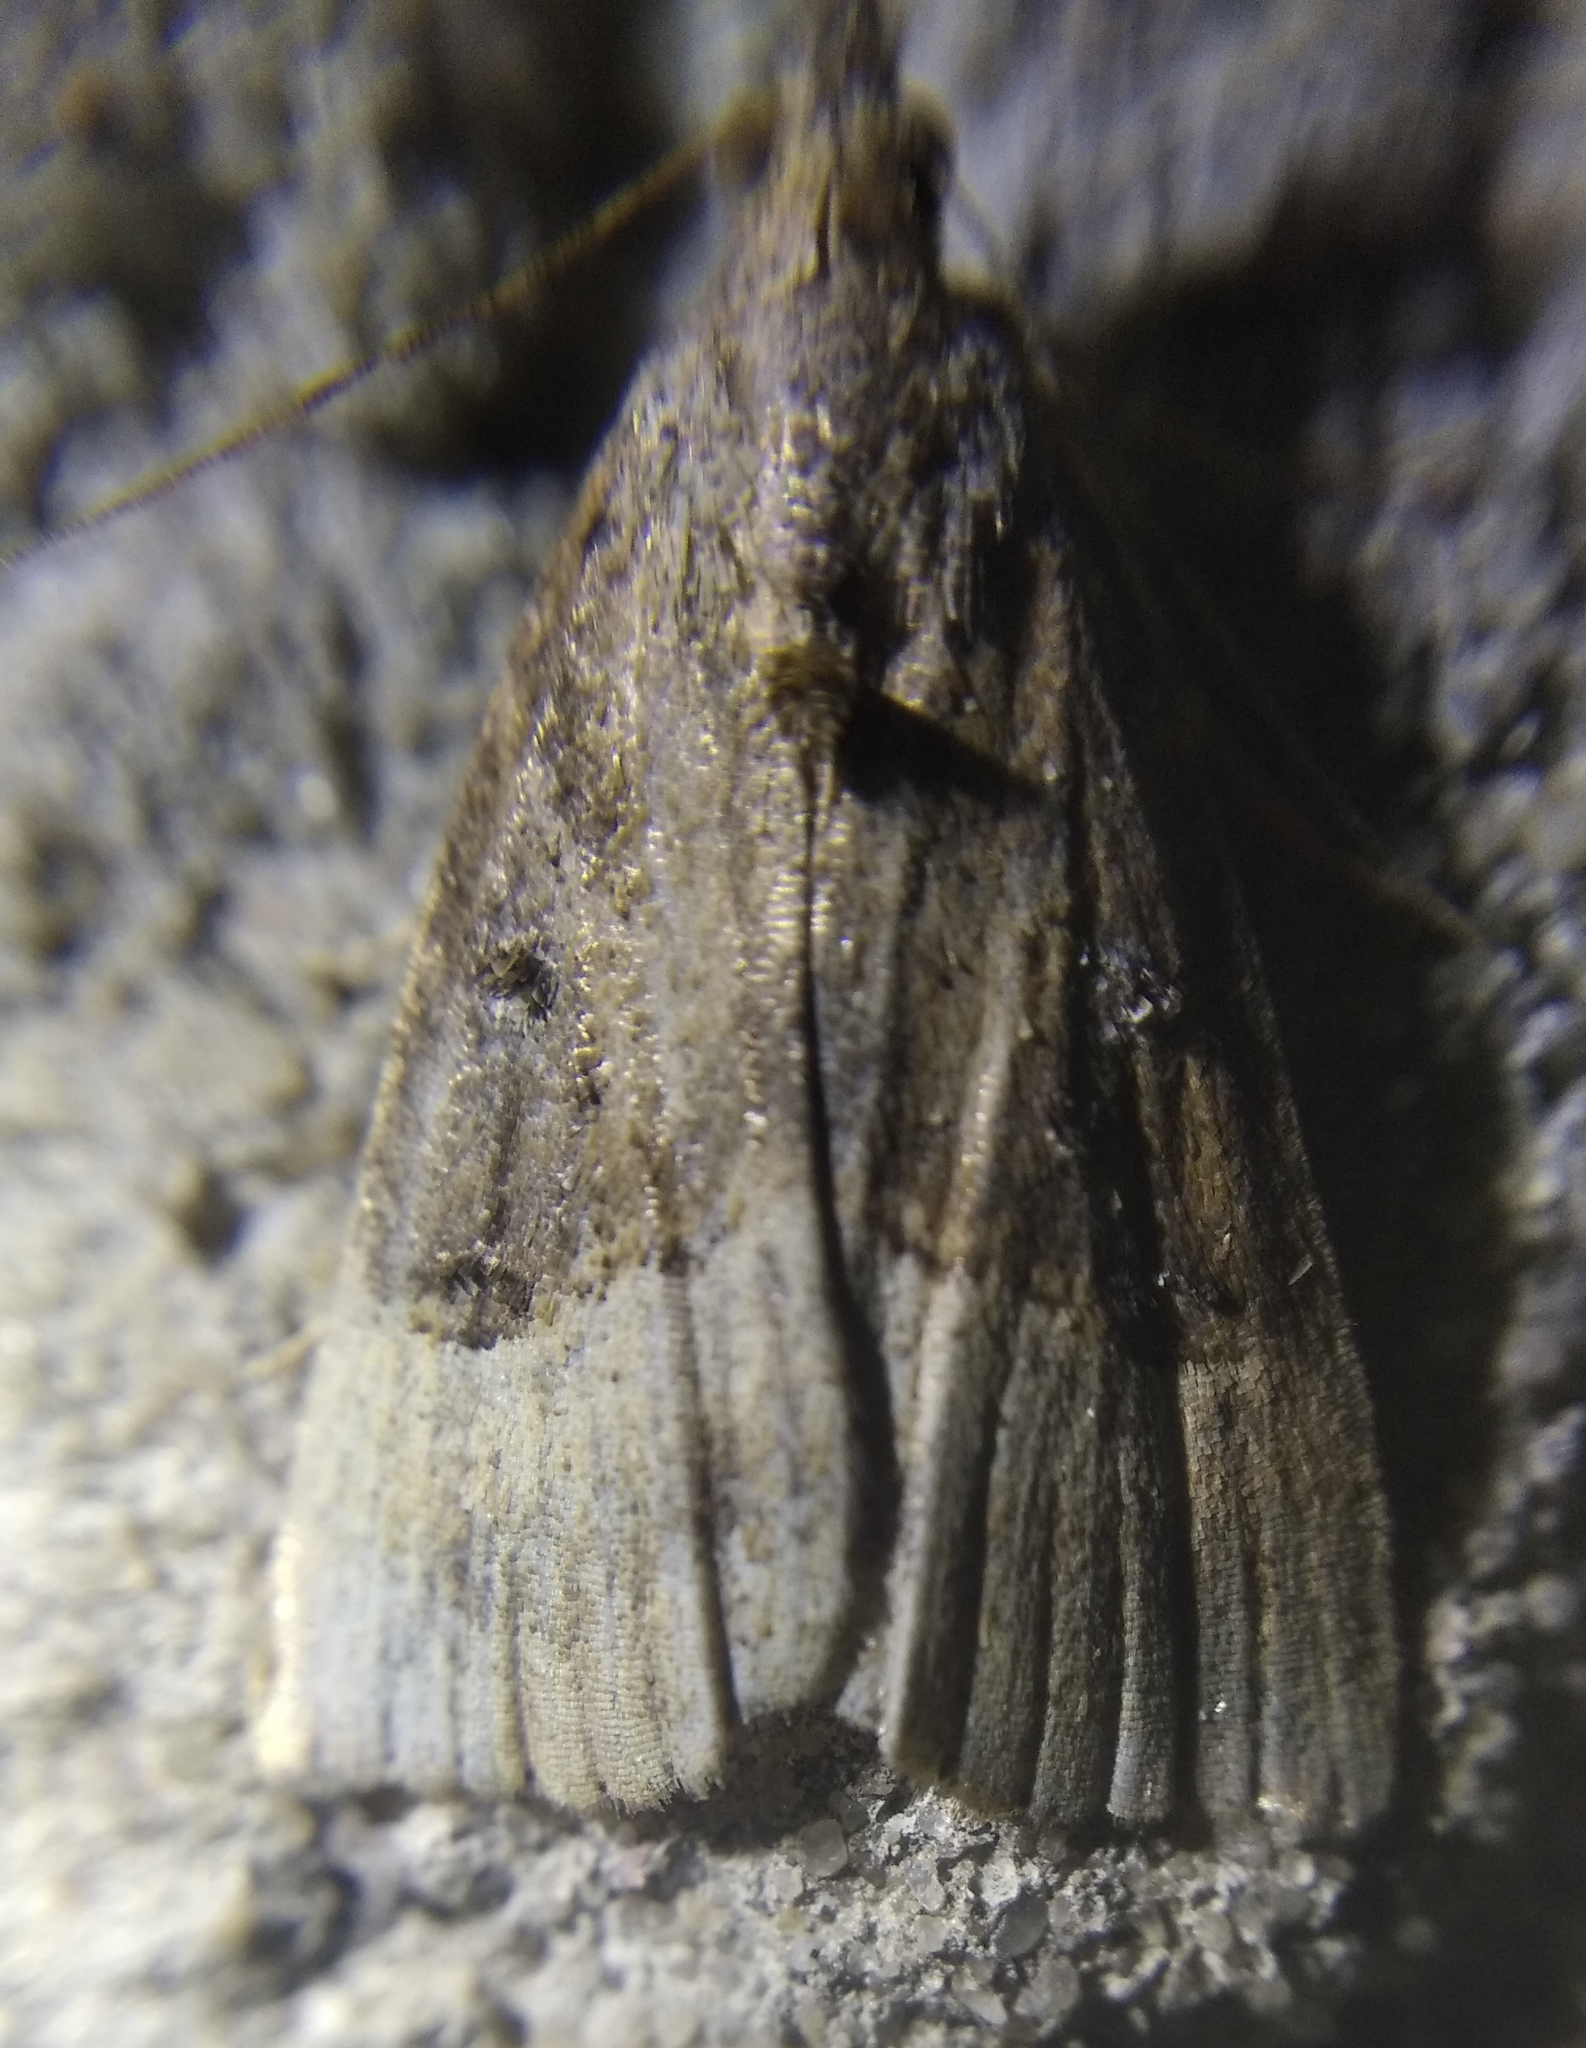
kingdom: Animalia
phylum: Arthropoda
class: Insecta
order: Lepidoptera
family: Erebidae
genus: Hypena
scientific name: Hypena rostralis
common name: Buttoned snout
